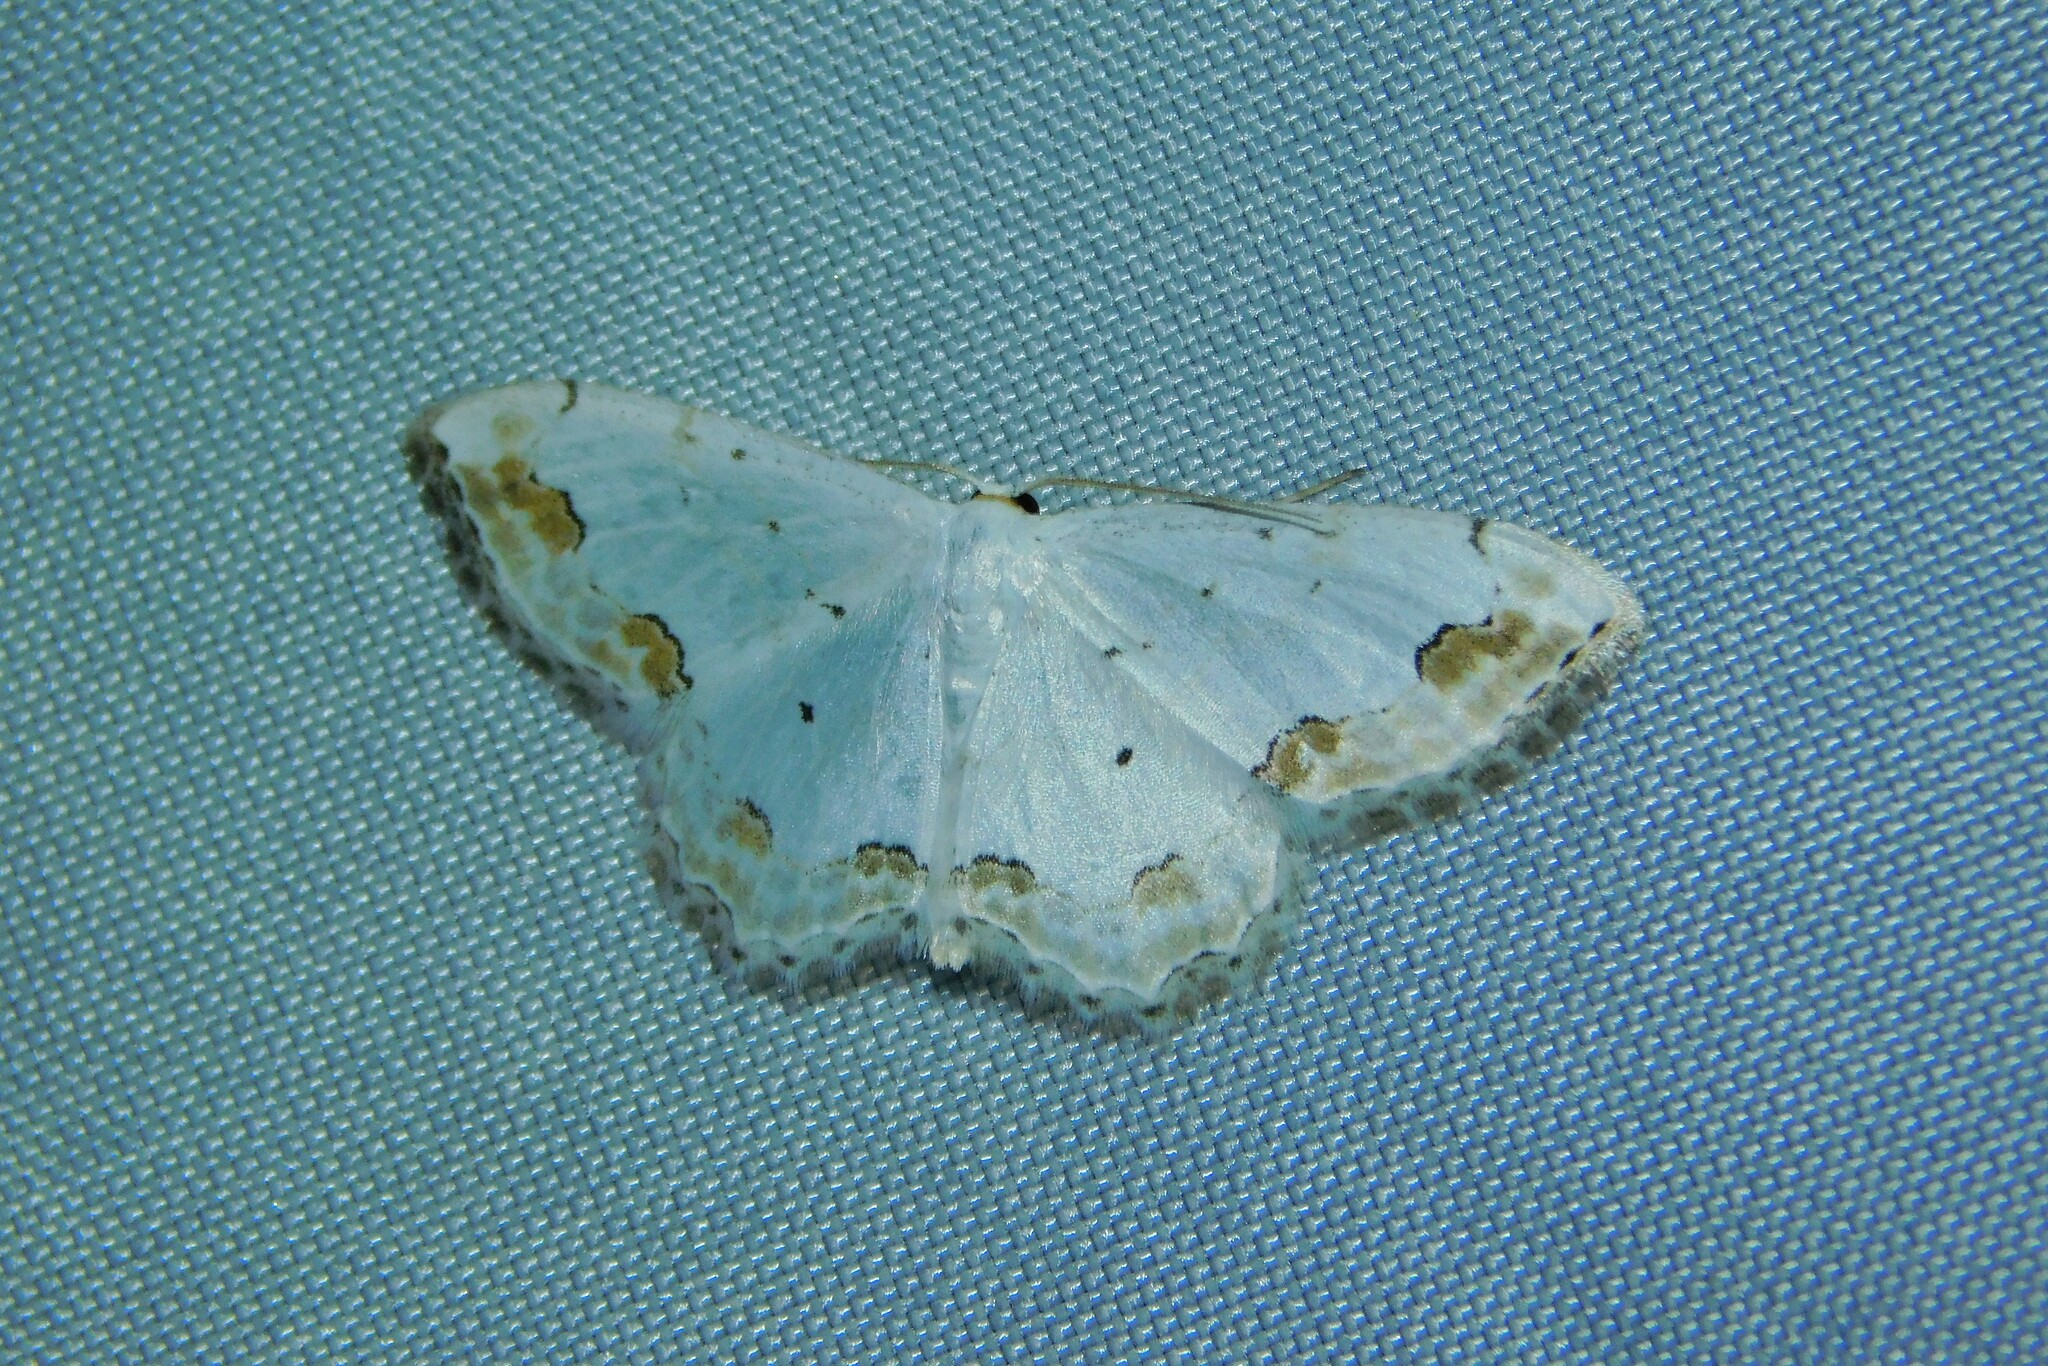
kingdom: Animalia
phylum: Arthropoda
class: Insecta
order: Lepidoptera
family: Geometridae
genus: Scopula
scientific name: Scopula ornata
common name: Lace border
